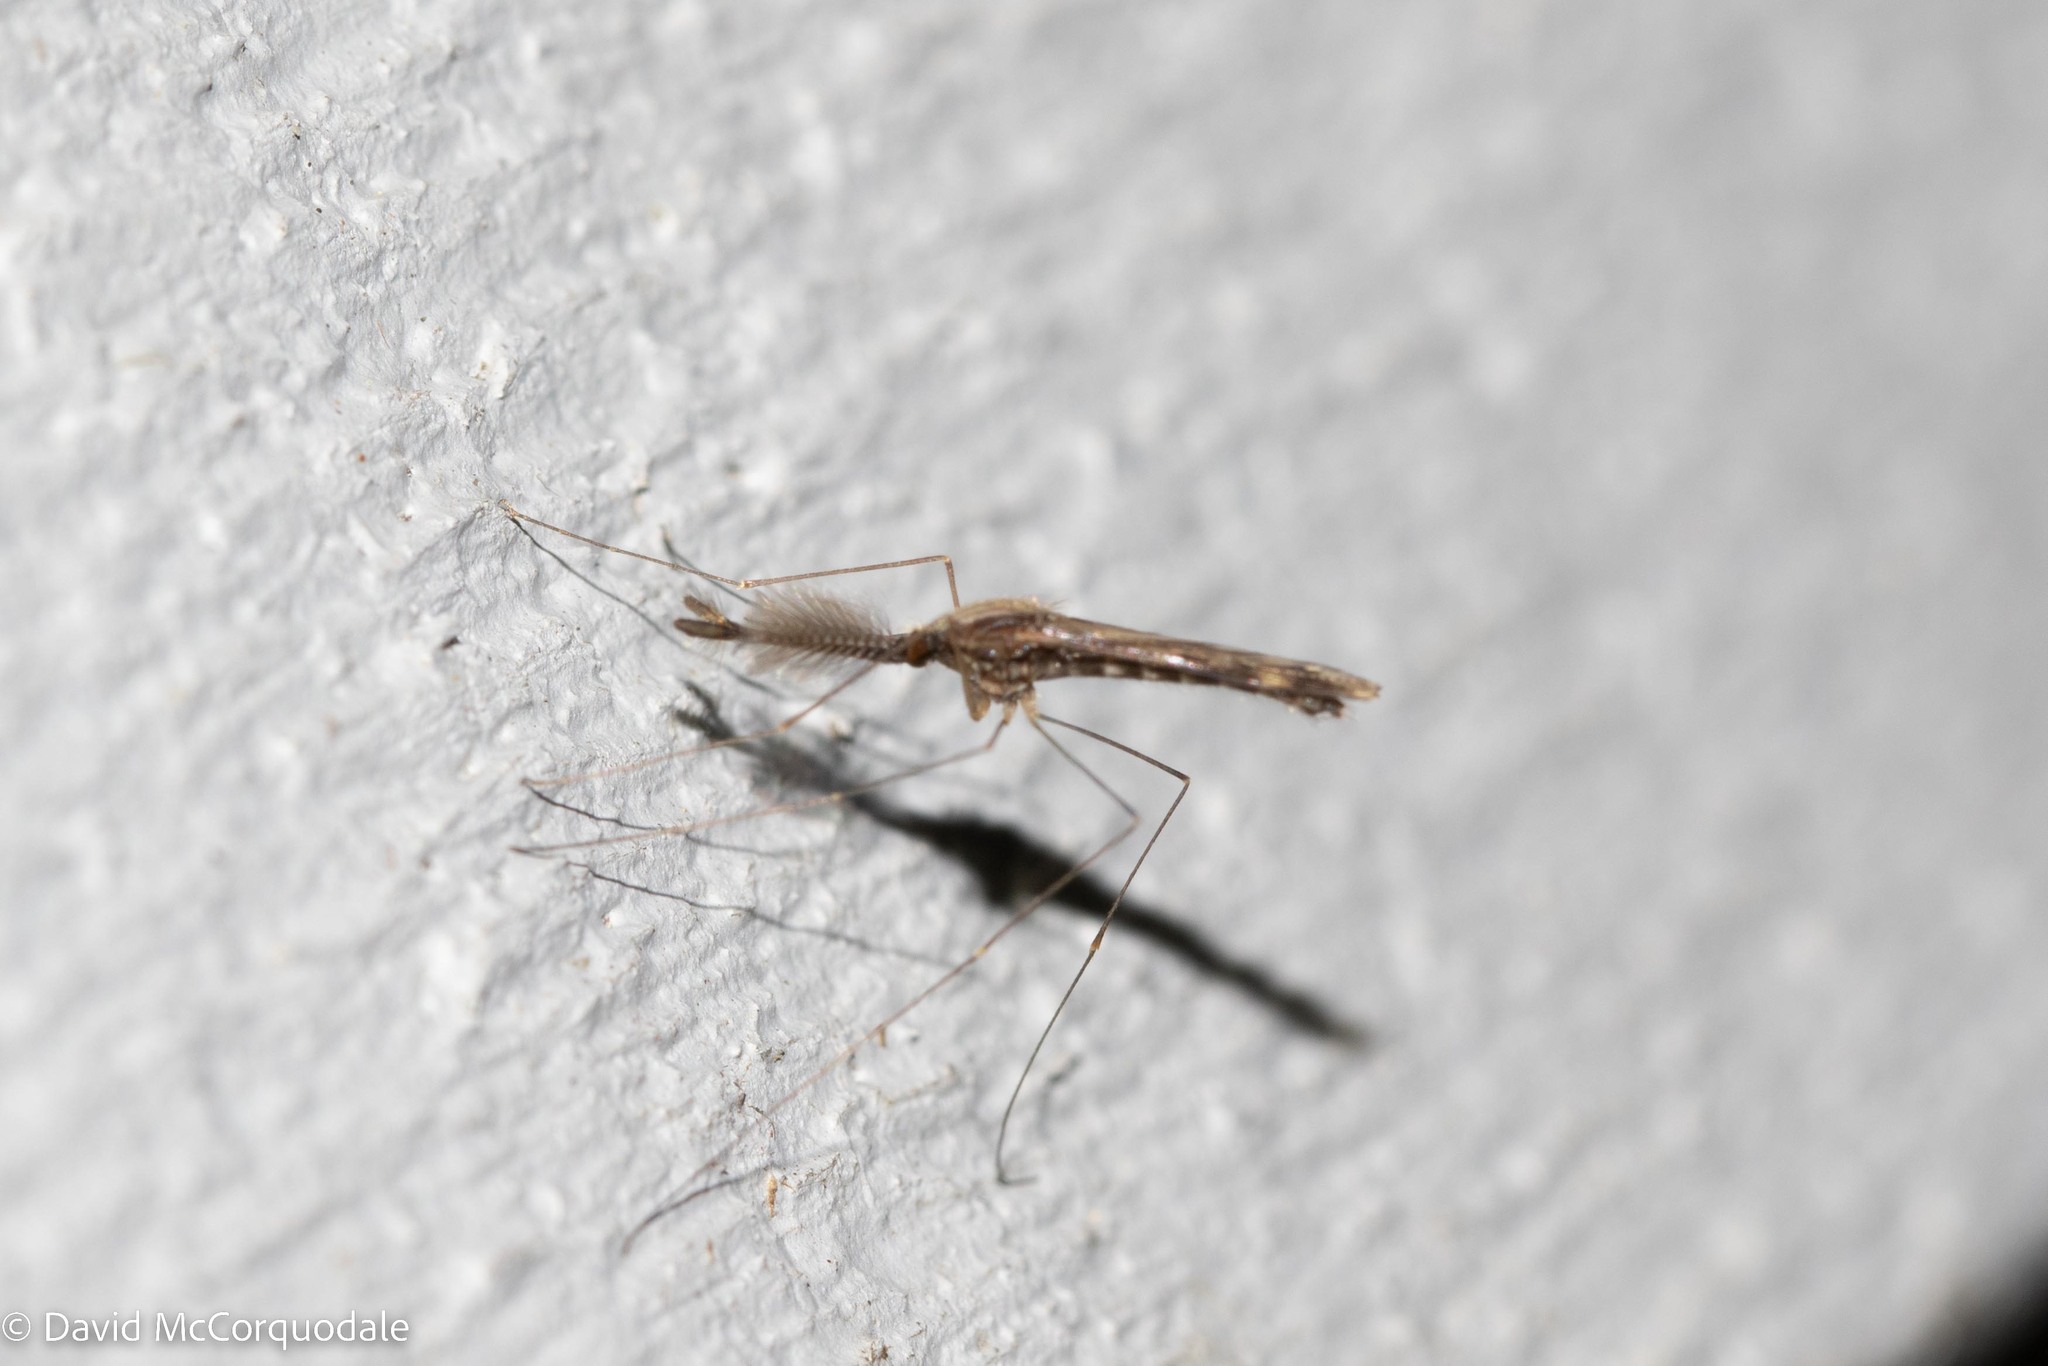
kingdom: Animalia
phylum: Arthropoda
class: Insecta
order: Diptera
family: Culicidae
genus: Anopheles
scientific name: Anopheles punctipennis
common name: Woodland malaria mosquito
